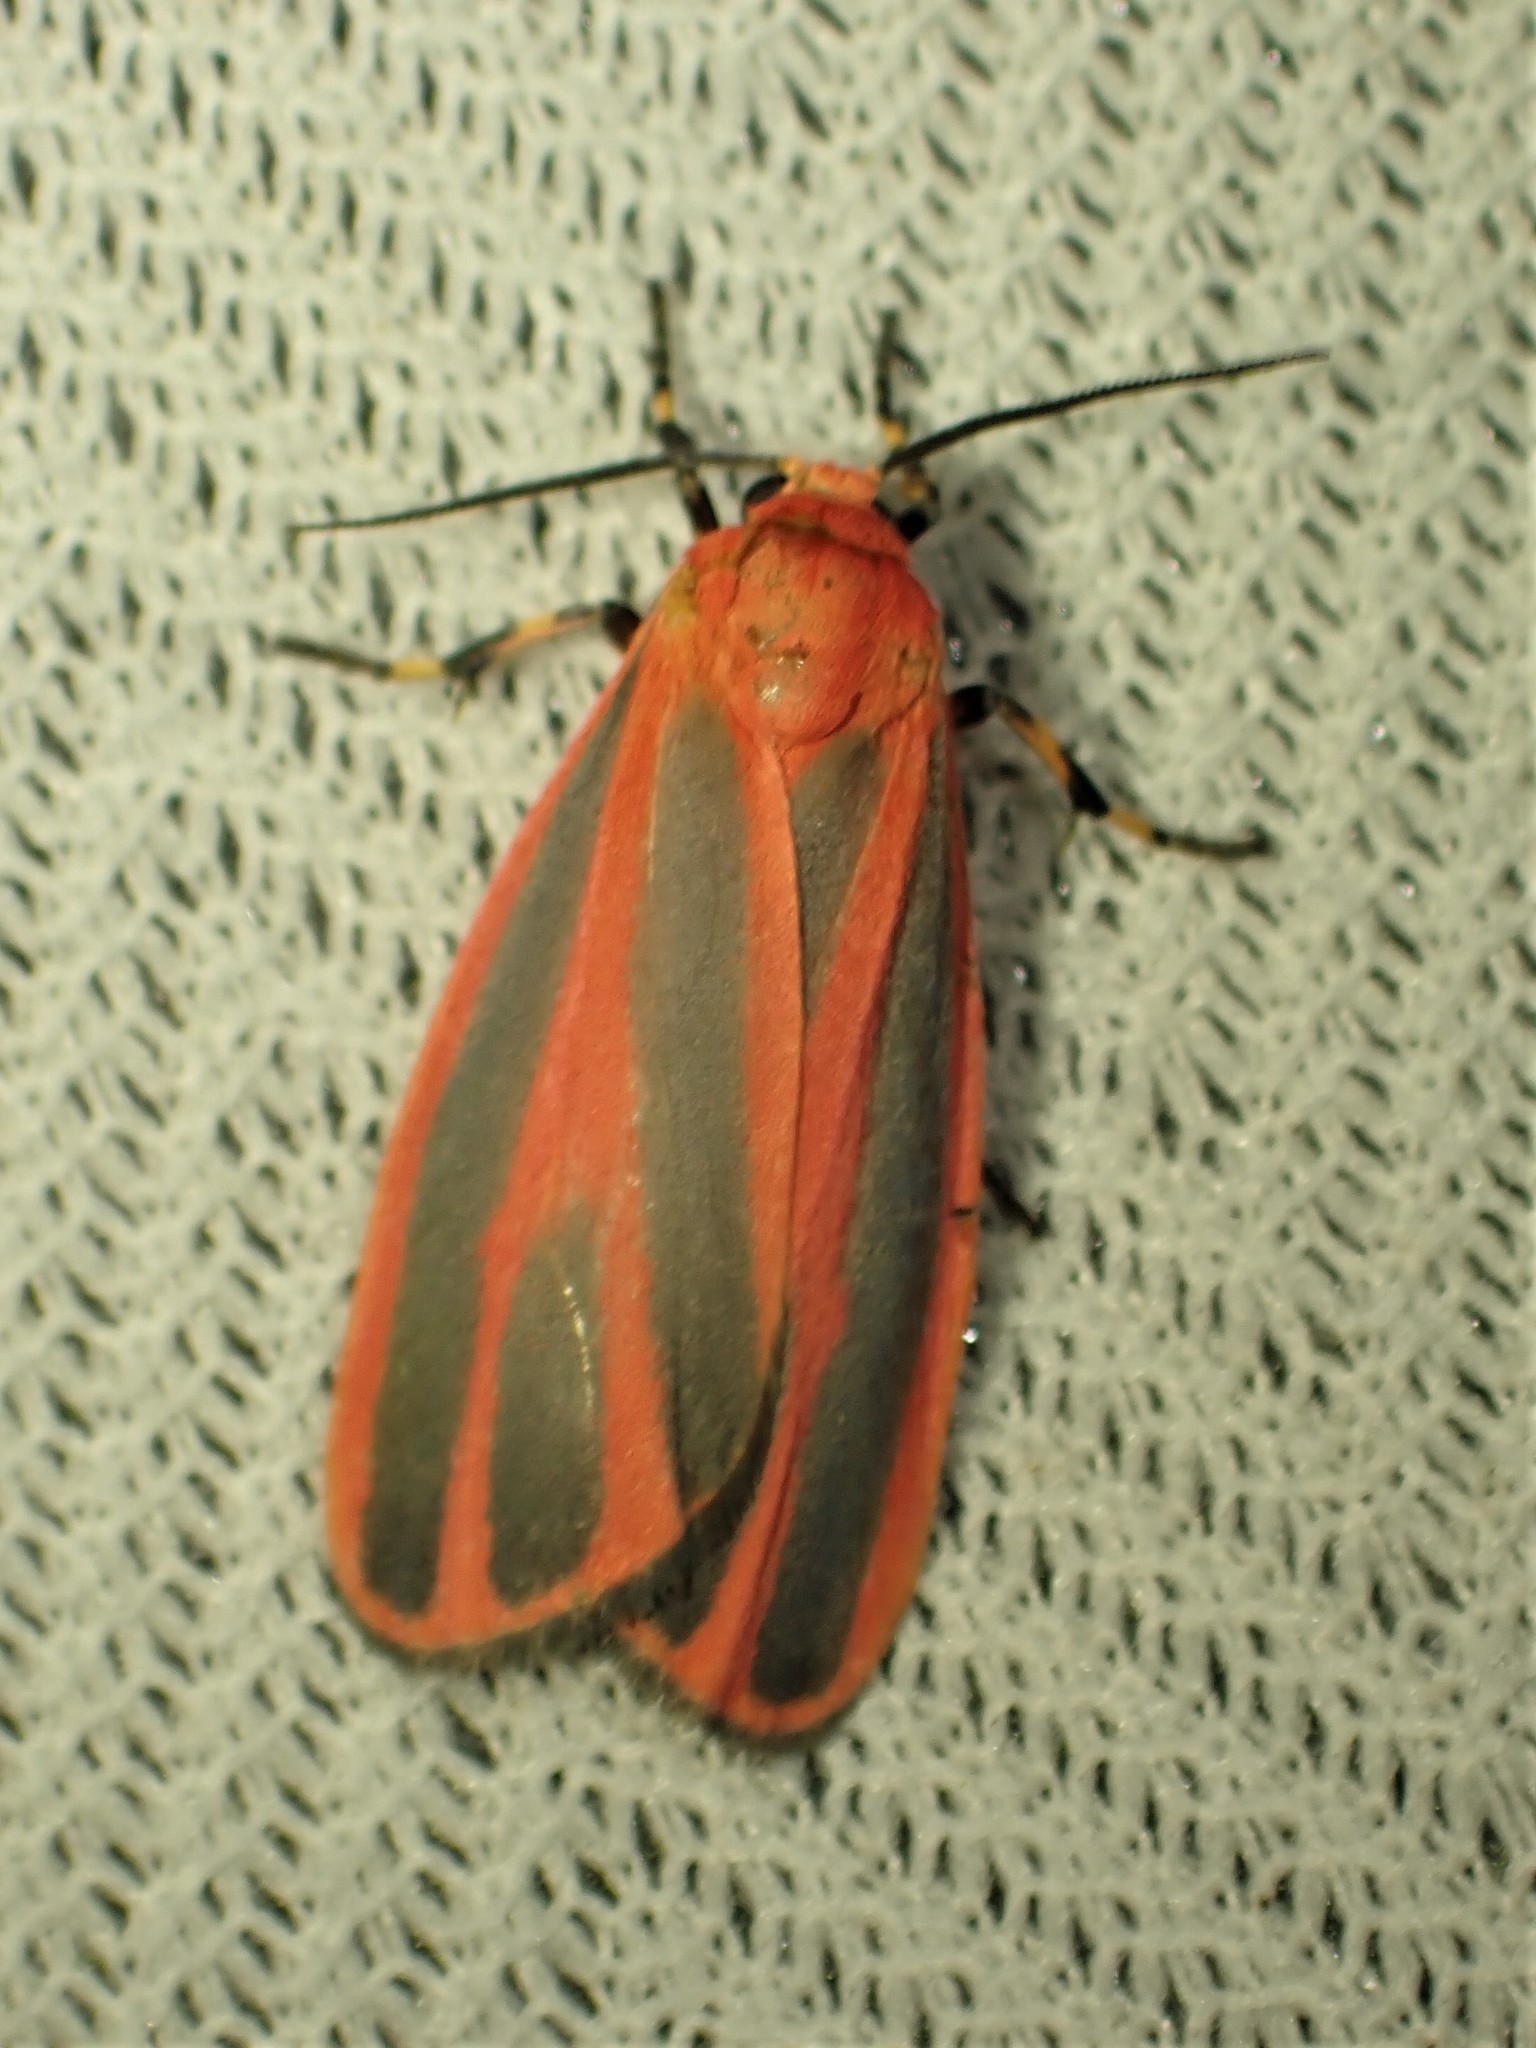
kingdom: Animalia
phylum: Arthropoda
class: Insecta
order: Lepidoptera
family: Erebidae
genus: Hypoprepia
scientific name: Hypoprepia miniata
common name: Scarlet-winged lichen moth
